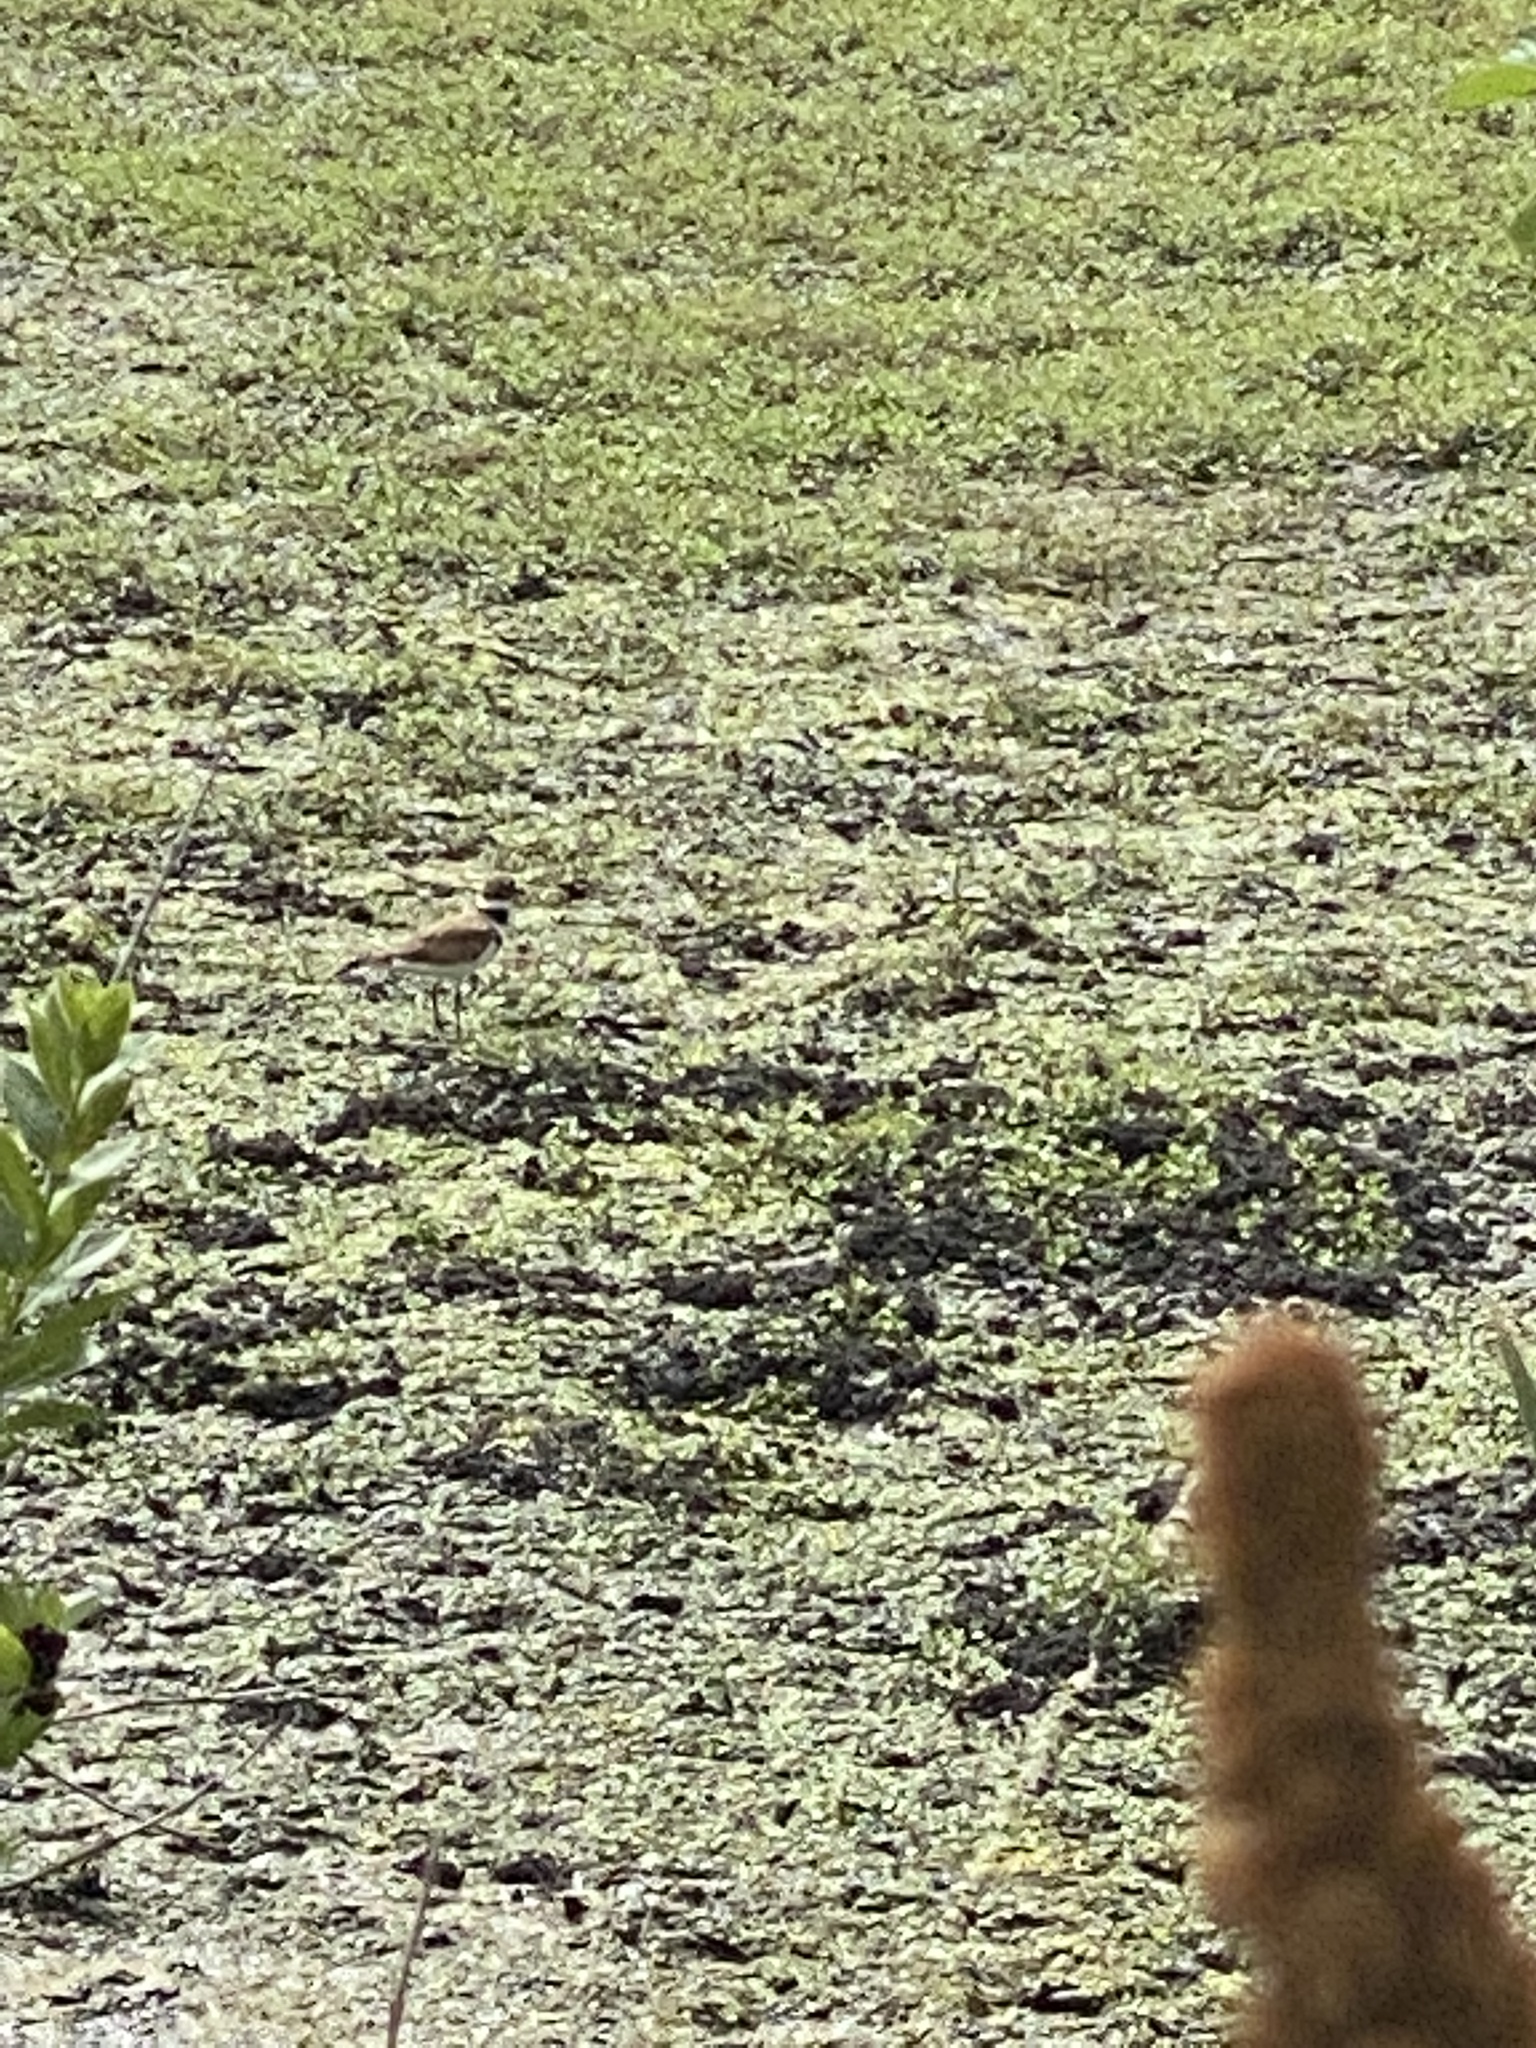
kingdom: Animalia
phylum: Chordata
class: Aves
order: Charadriiformes
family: Charadriidae
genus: Charadrius
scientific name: Charadrius vociferus
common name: Killdeer
